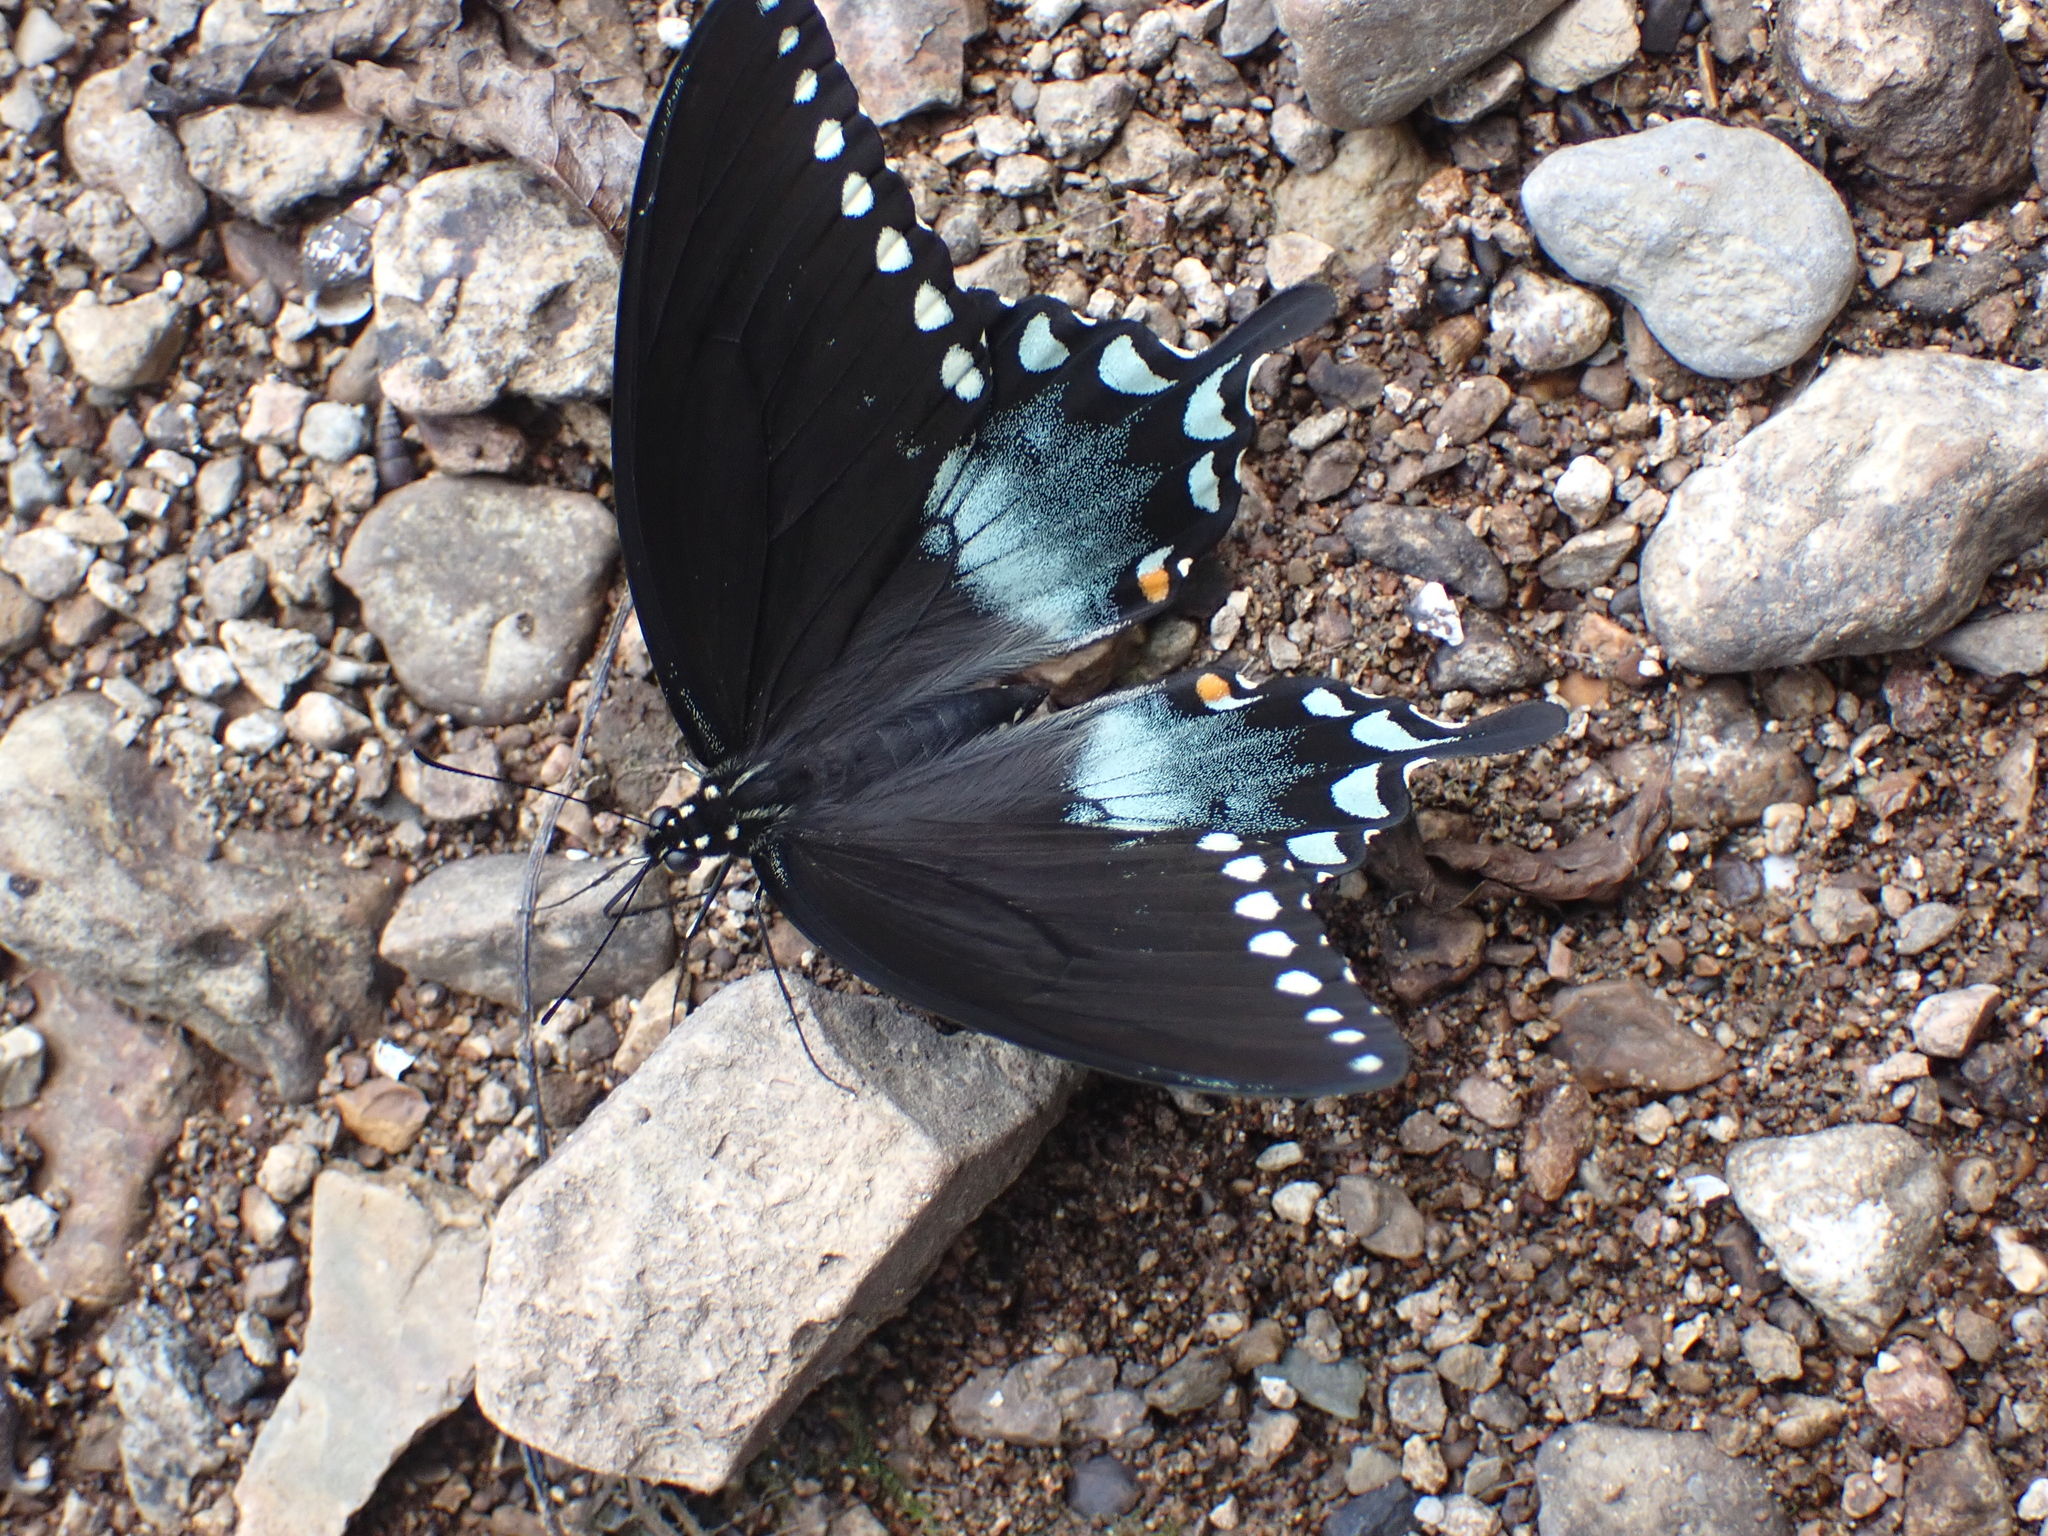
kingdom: Animalia
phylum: Arthropoda
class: Insecta
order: Lepidoptera
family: Papilionidae
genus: Papilio
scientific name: Papilio troilus
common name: Spicebush swallowtail
